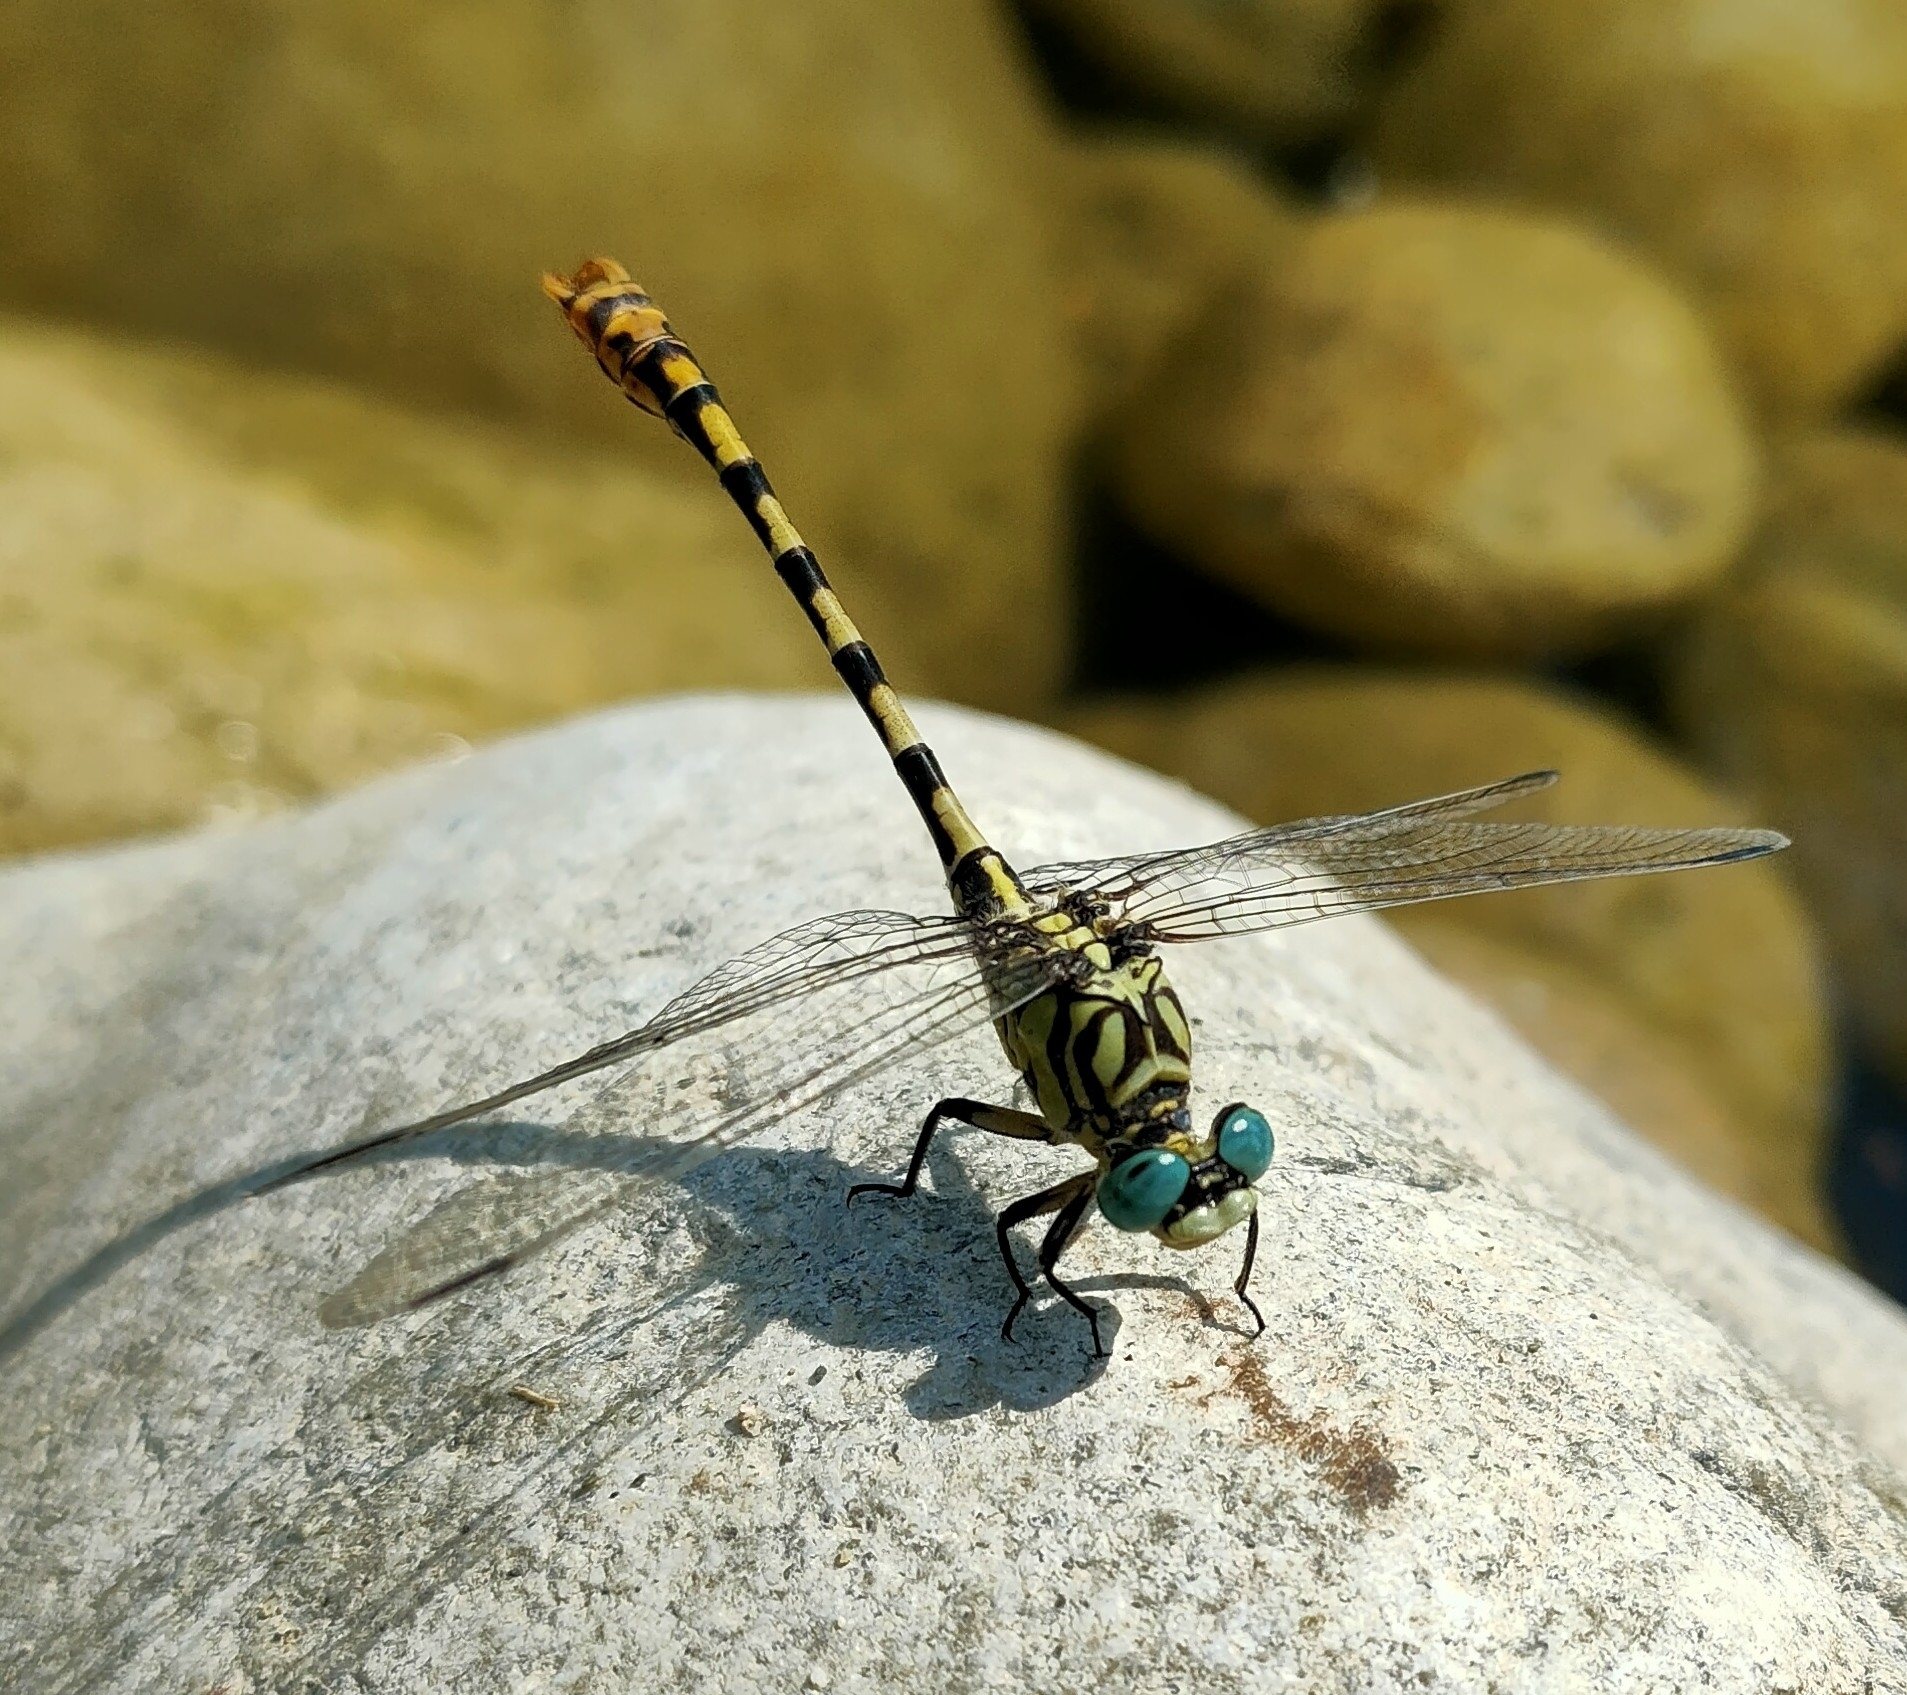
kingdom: Animalia
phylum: Arthropoda
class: Insecta
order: Odonata
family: Gomphidae
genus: Onychogomphus
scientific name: Onychogomphus forcipatus
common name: Small pincertail
